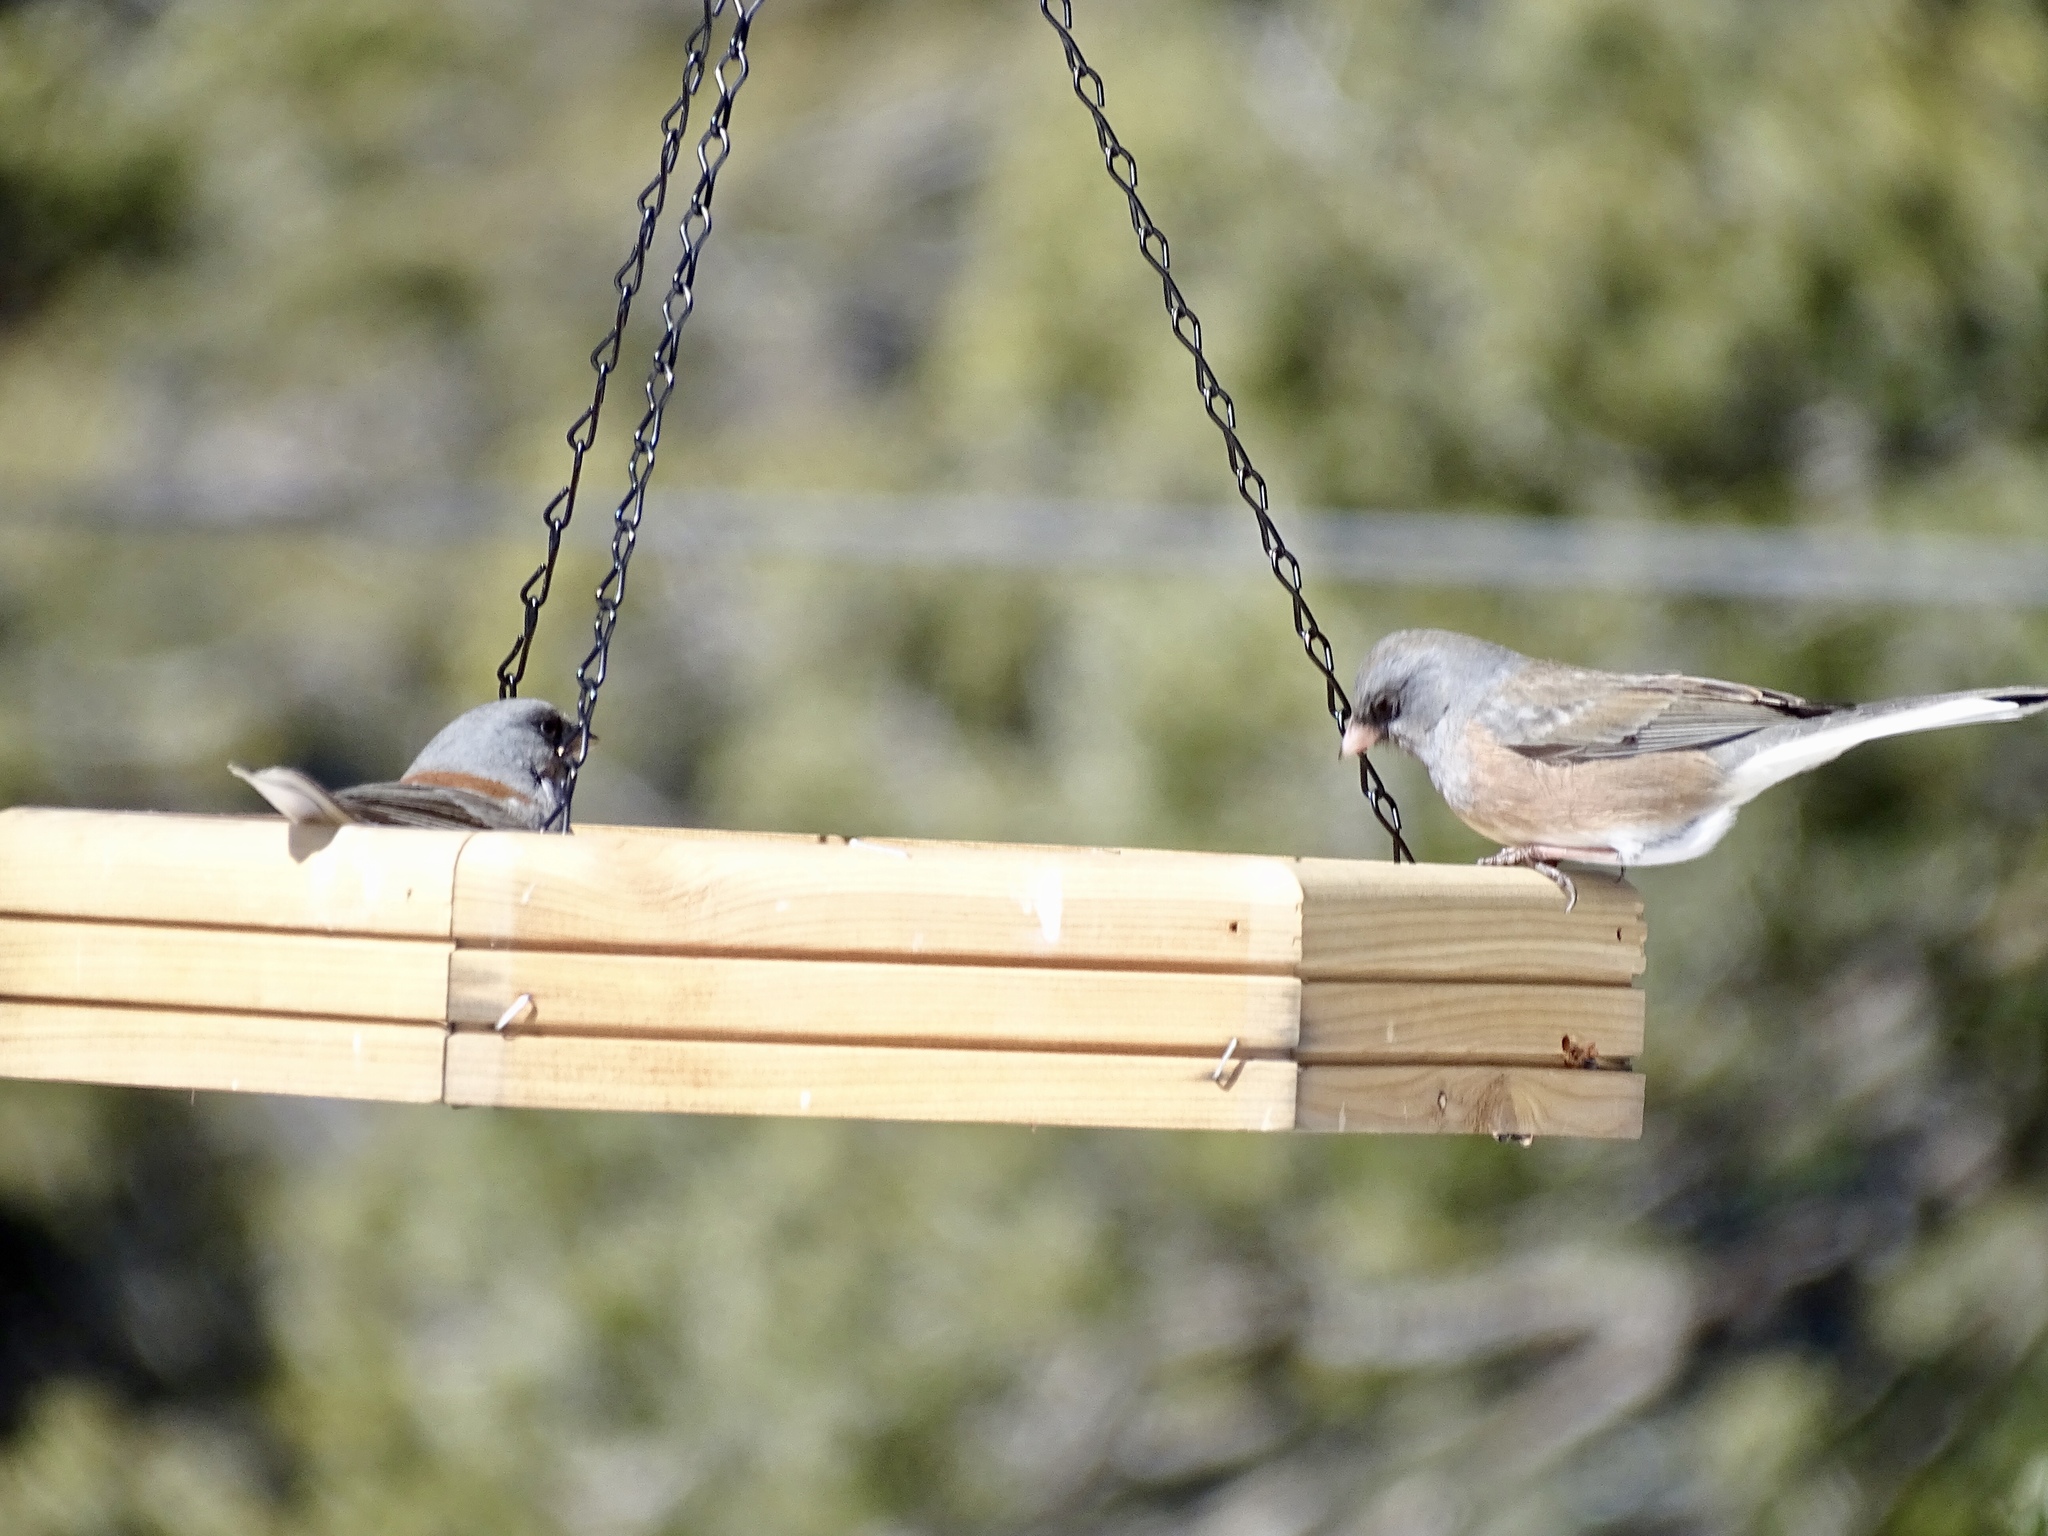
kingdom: Animalia
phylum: Chordata
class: Aves
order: Passeriformes
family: Passerellidae
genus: Junco
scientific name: Junco hyemalis
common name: Dark-eyed junco
